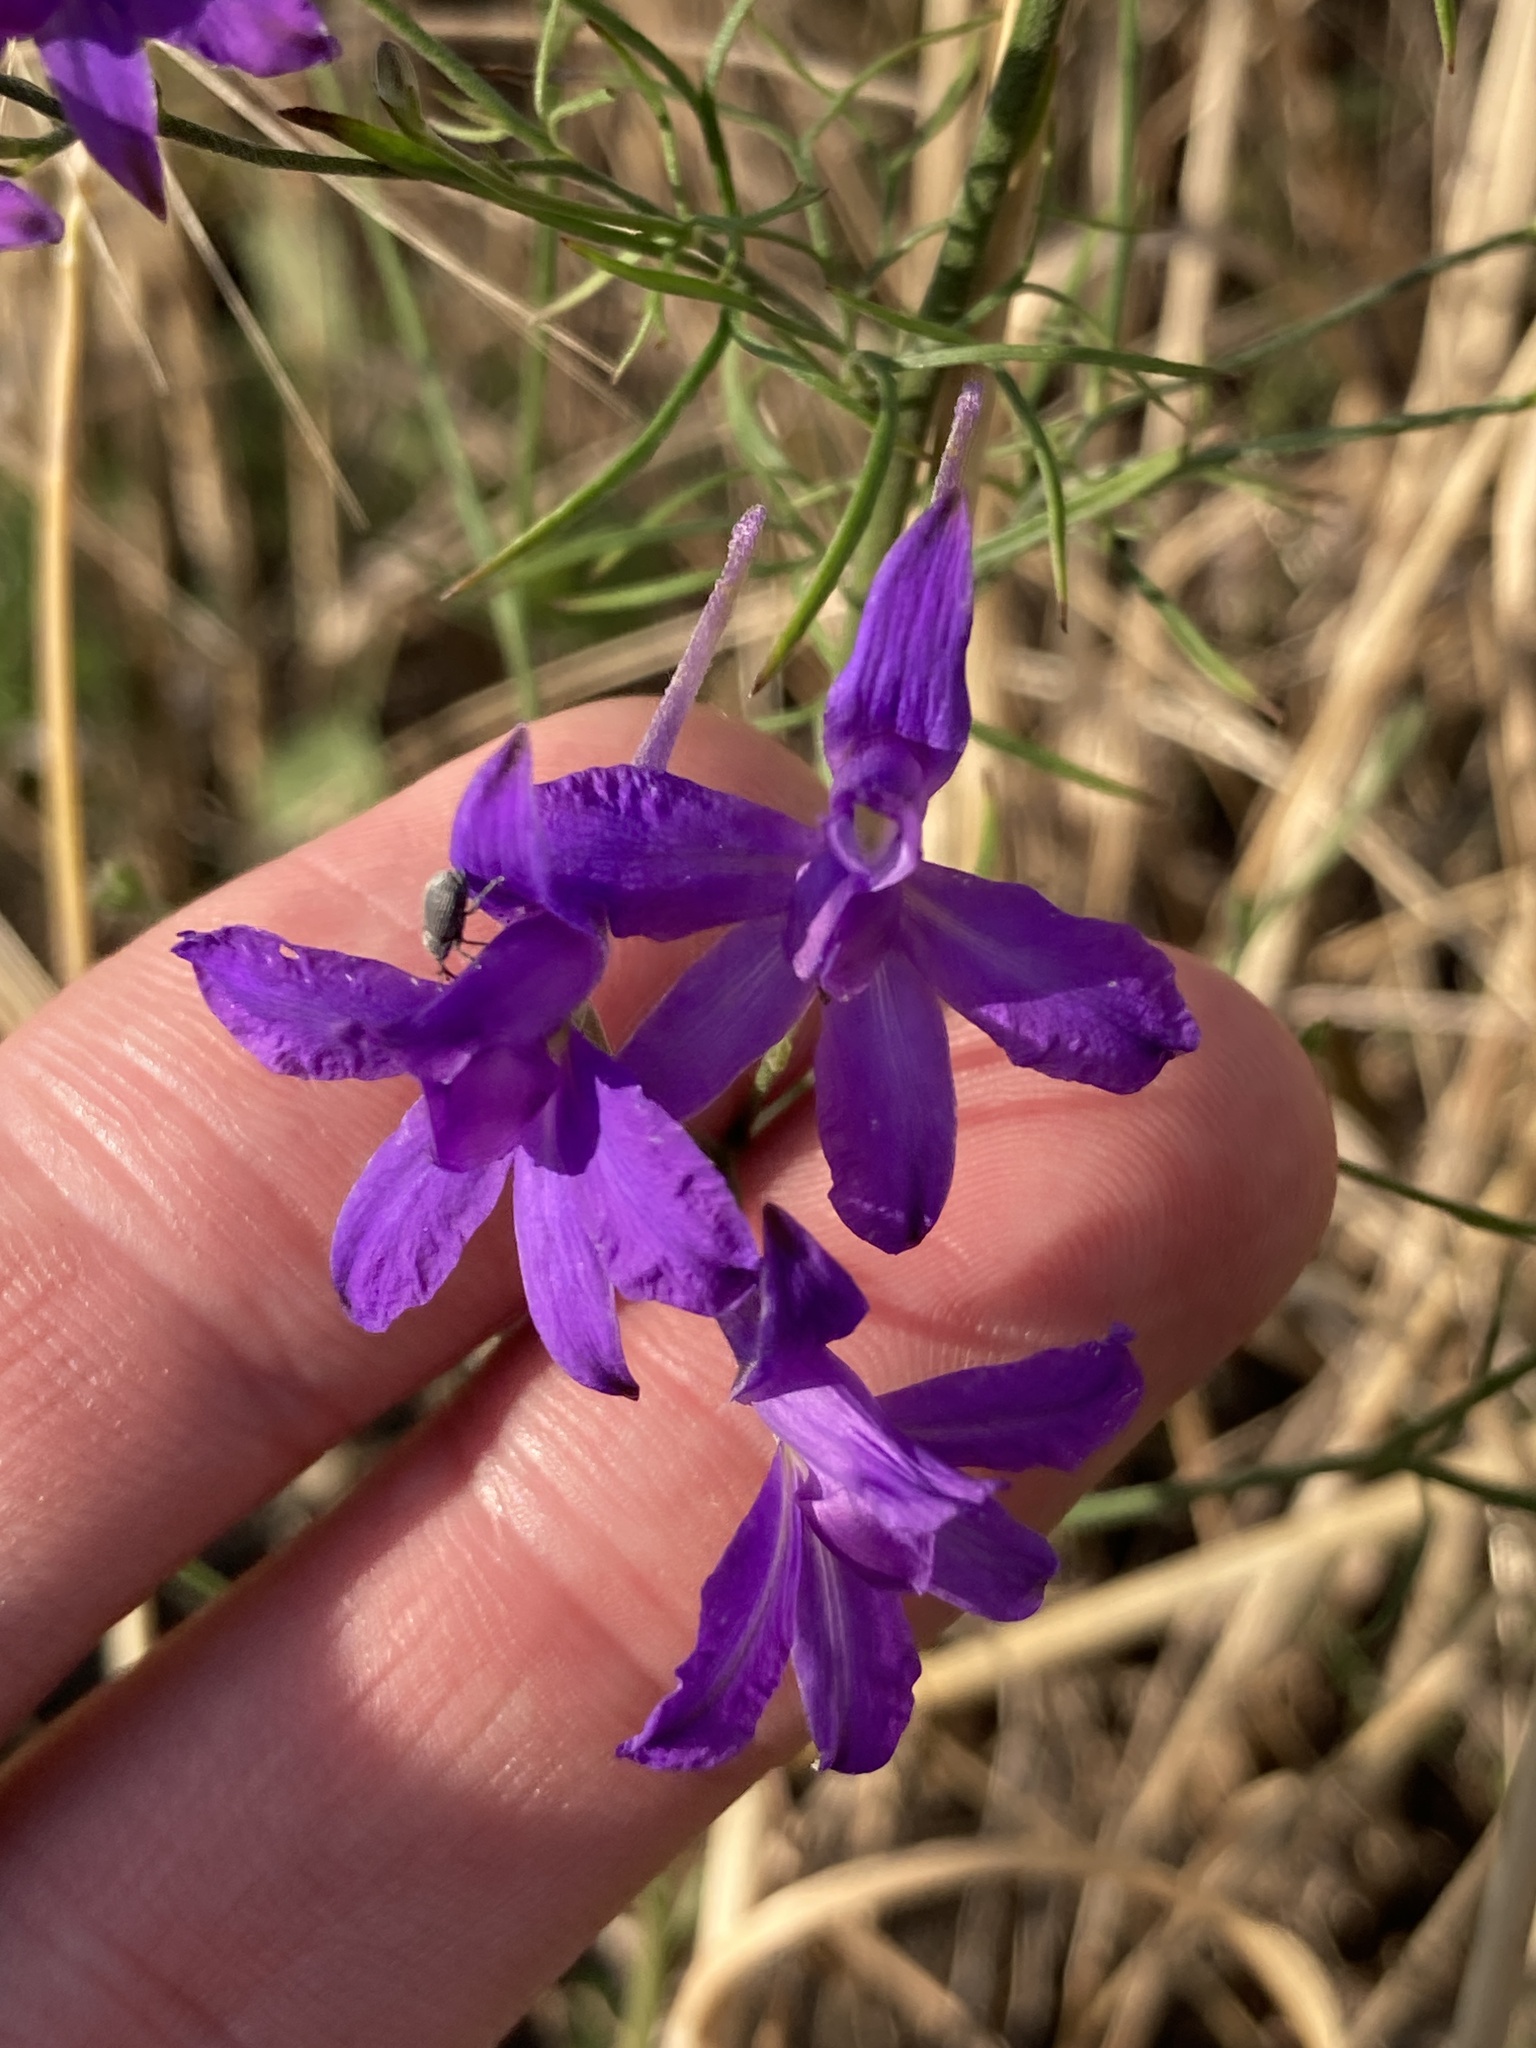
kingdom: Plantae
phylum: Tracheophyta
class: Magnoliopsida
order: Ranunculales
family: Ranunculaceae
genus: Delphinium
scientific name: Delphinium consolida
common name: Branching larkspur
